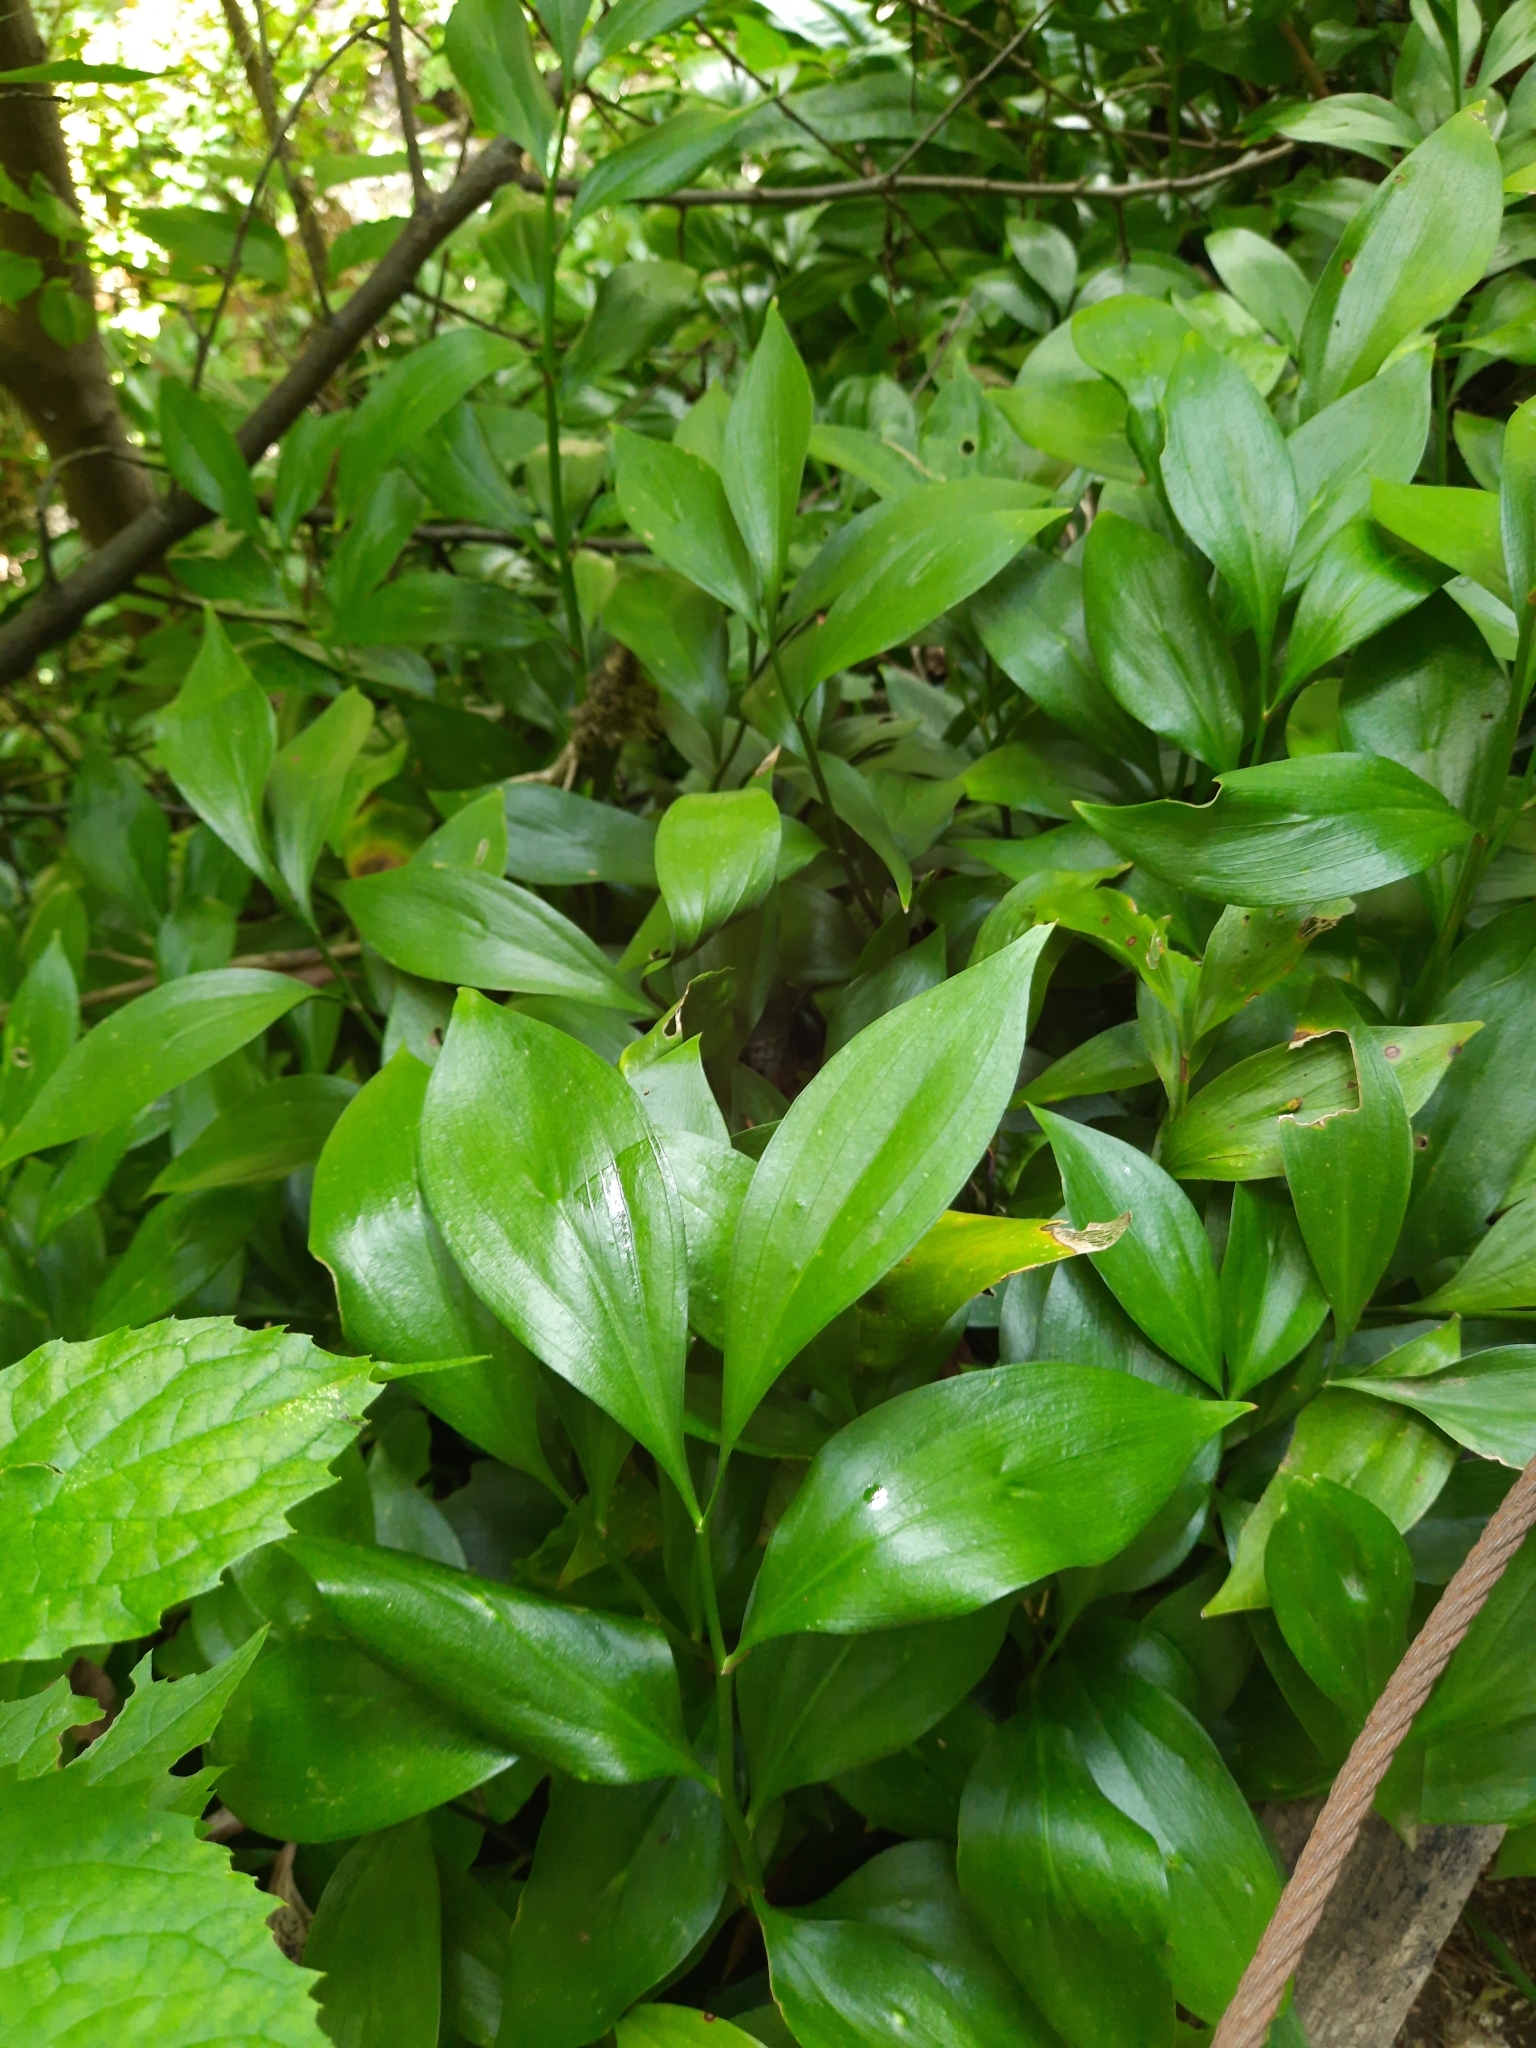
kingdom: Plantae
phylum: Tracheophyta
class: Liliopsida
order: Asparagales
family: Asparagaceae
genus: Ruscus
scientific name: Ruscus colchicus
